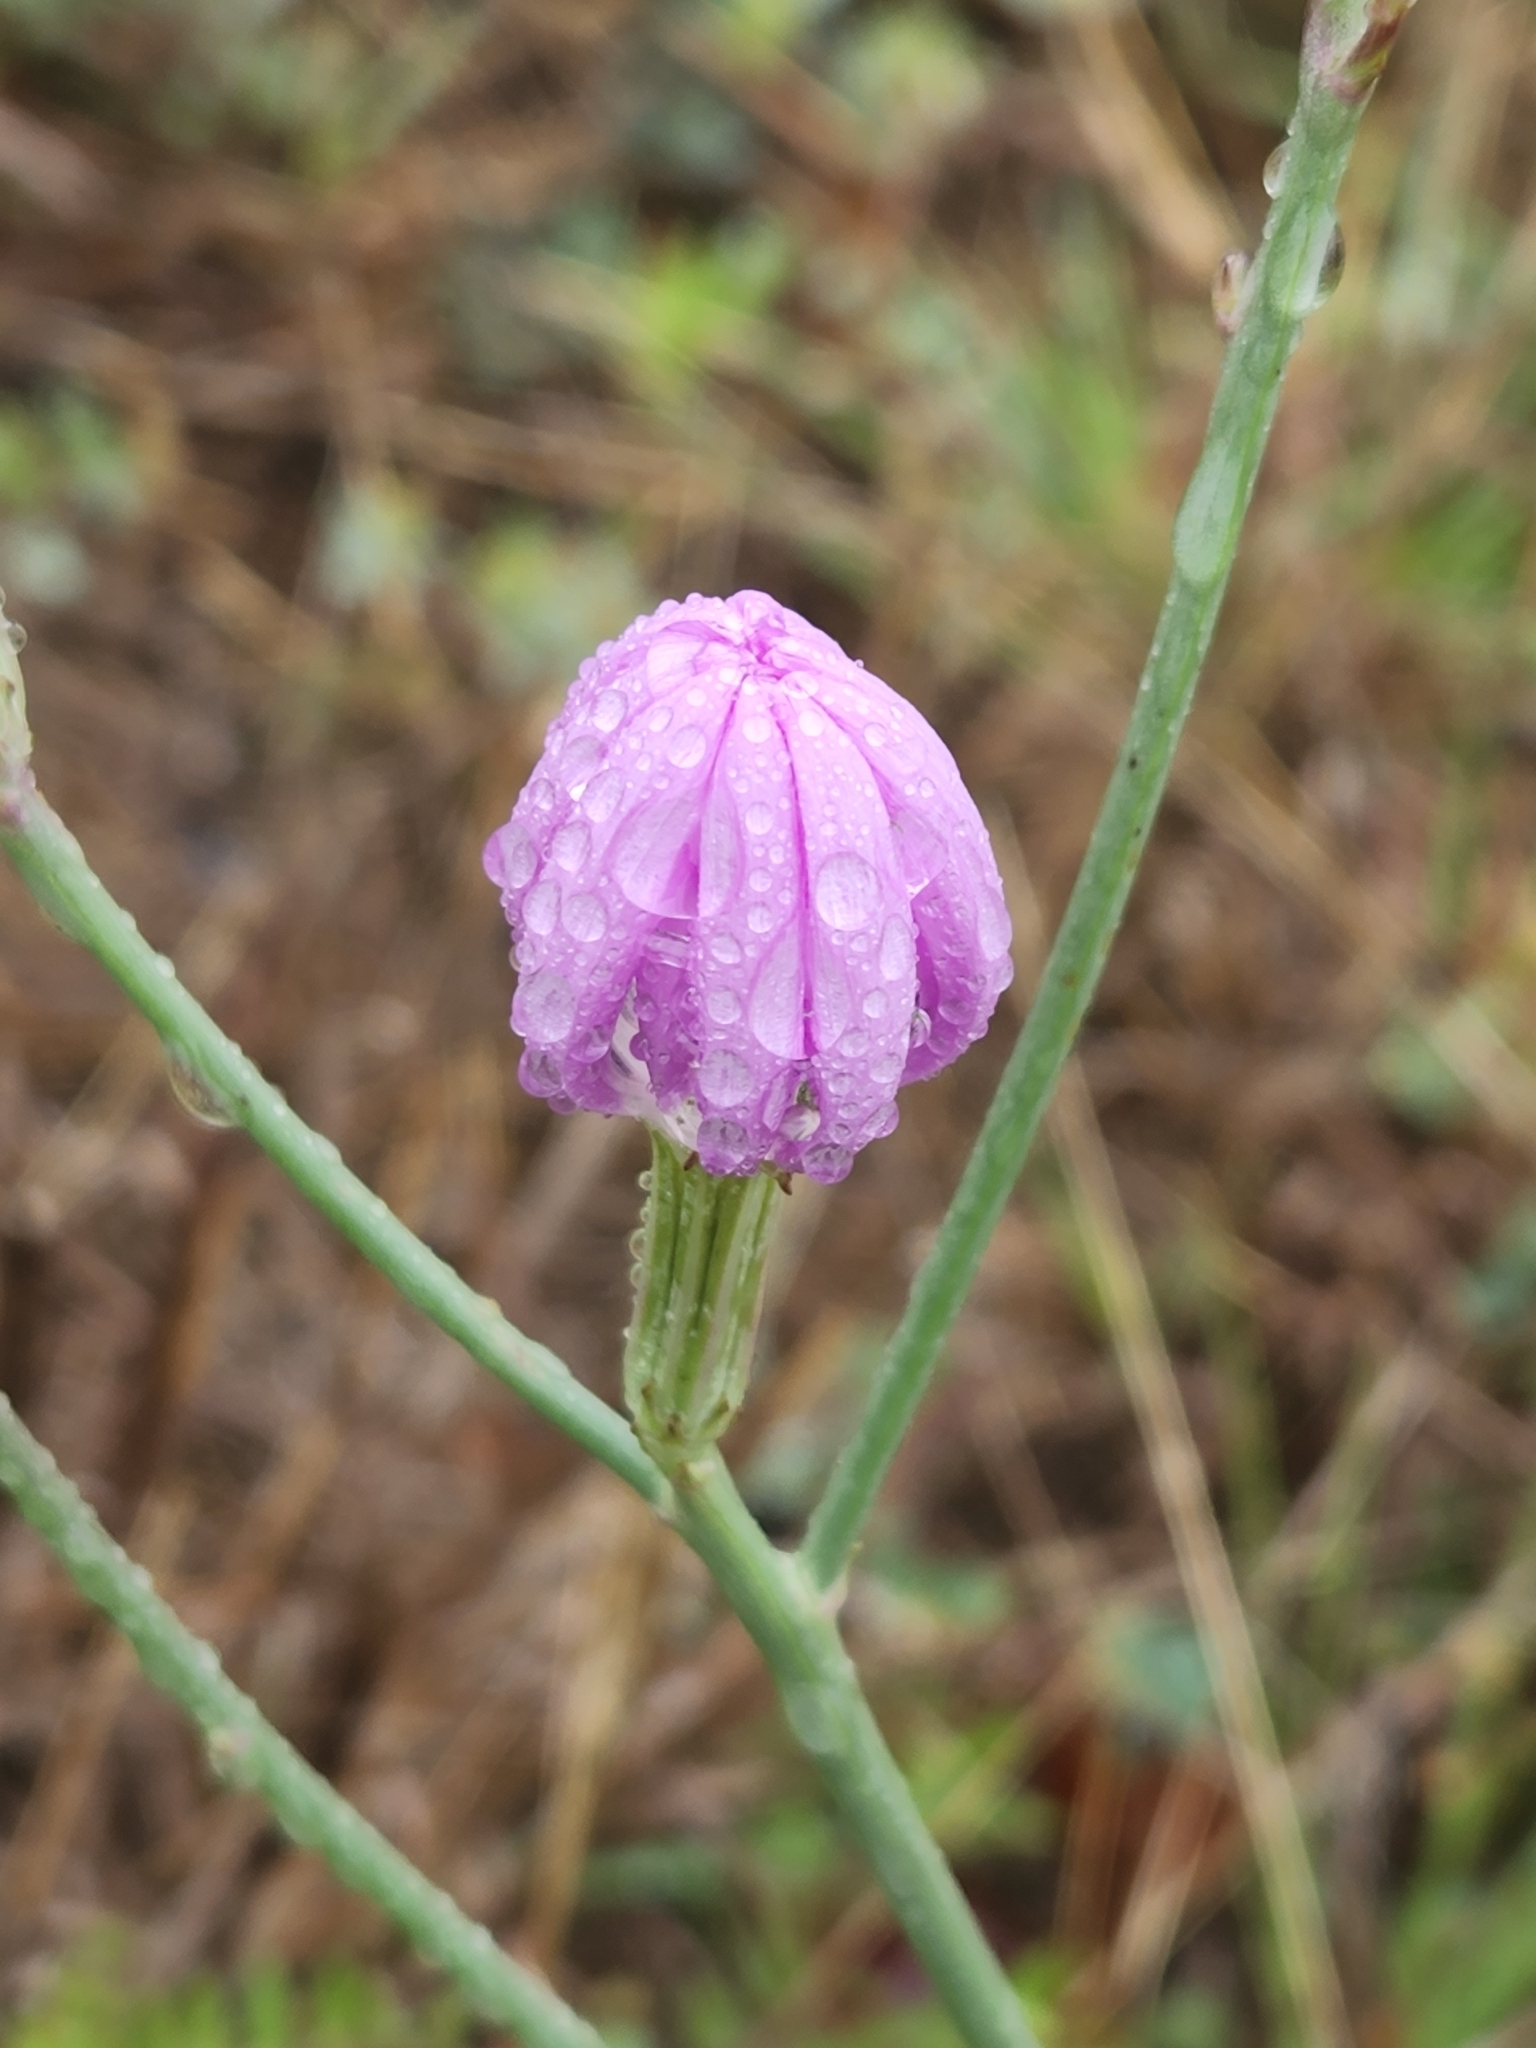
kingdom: Plantae
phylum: Tracheophyta
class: Magnoliopsida
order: Asterales
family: Asteraceae
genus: Lygodesmia
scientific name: Lygodesmia texana
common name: Texas skeleton-plant
